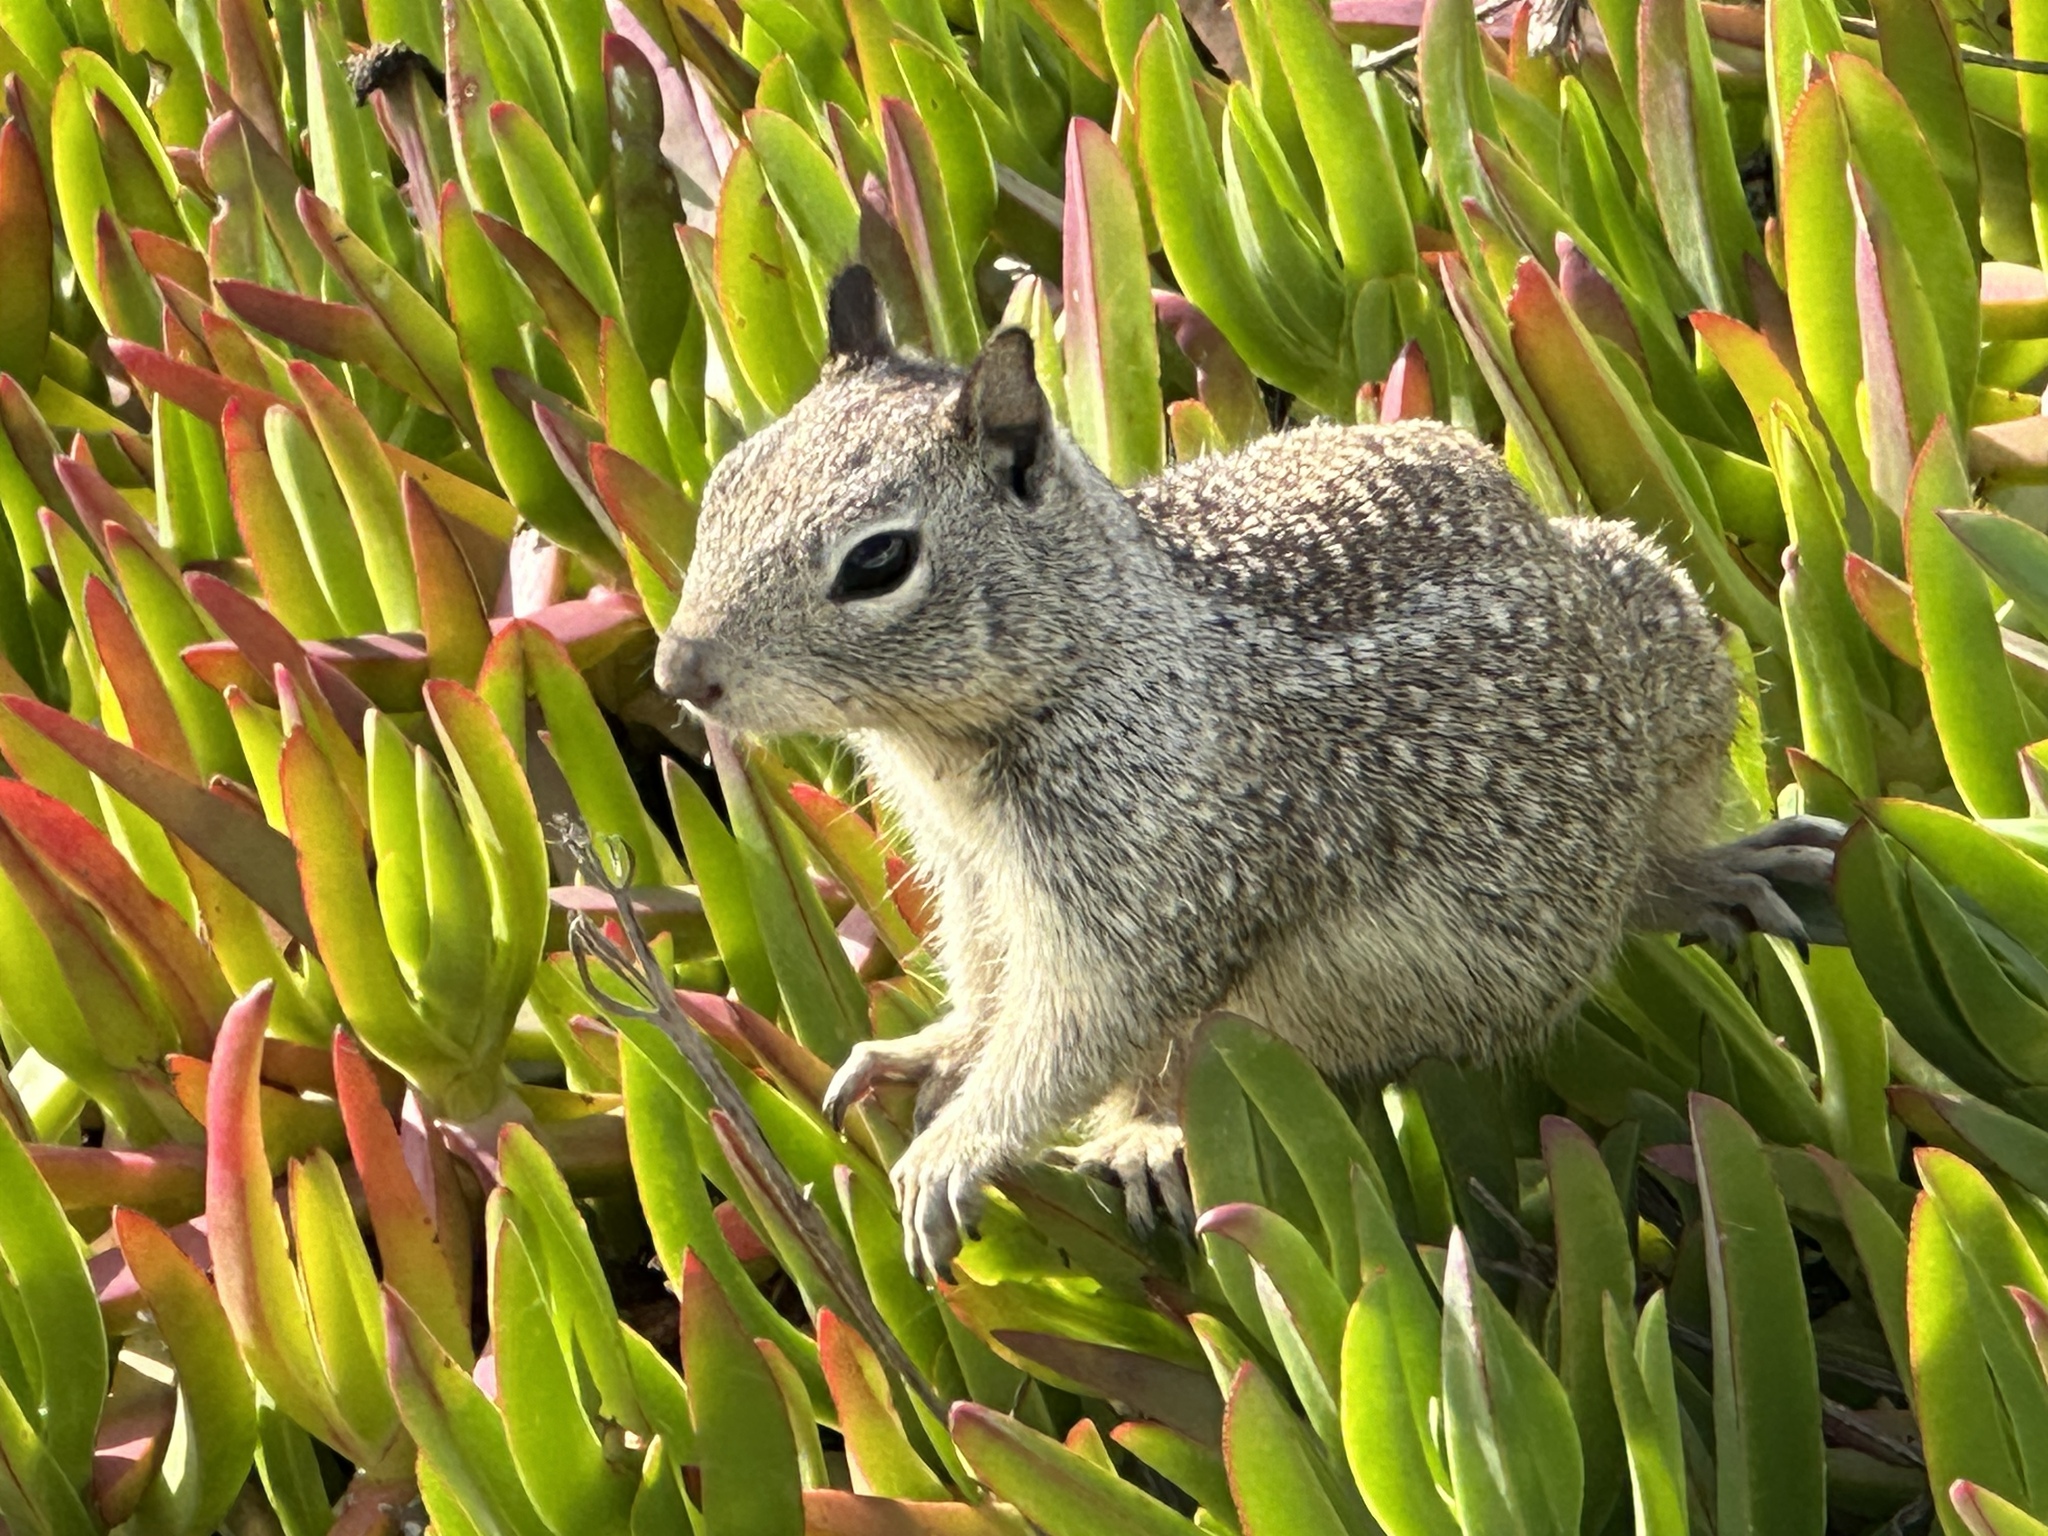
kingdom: Animalia
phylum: Chordata
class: Mammalia
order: Rodentia
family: Sciuridae
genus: Otospermophilus
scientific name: Otospermophilus beecheyi
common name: California ground squirrel
